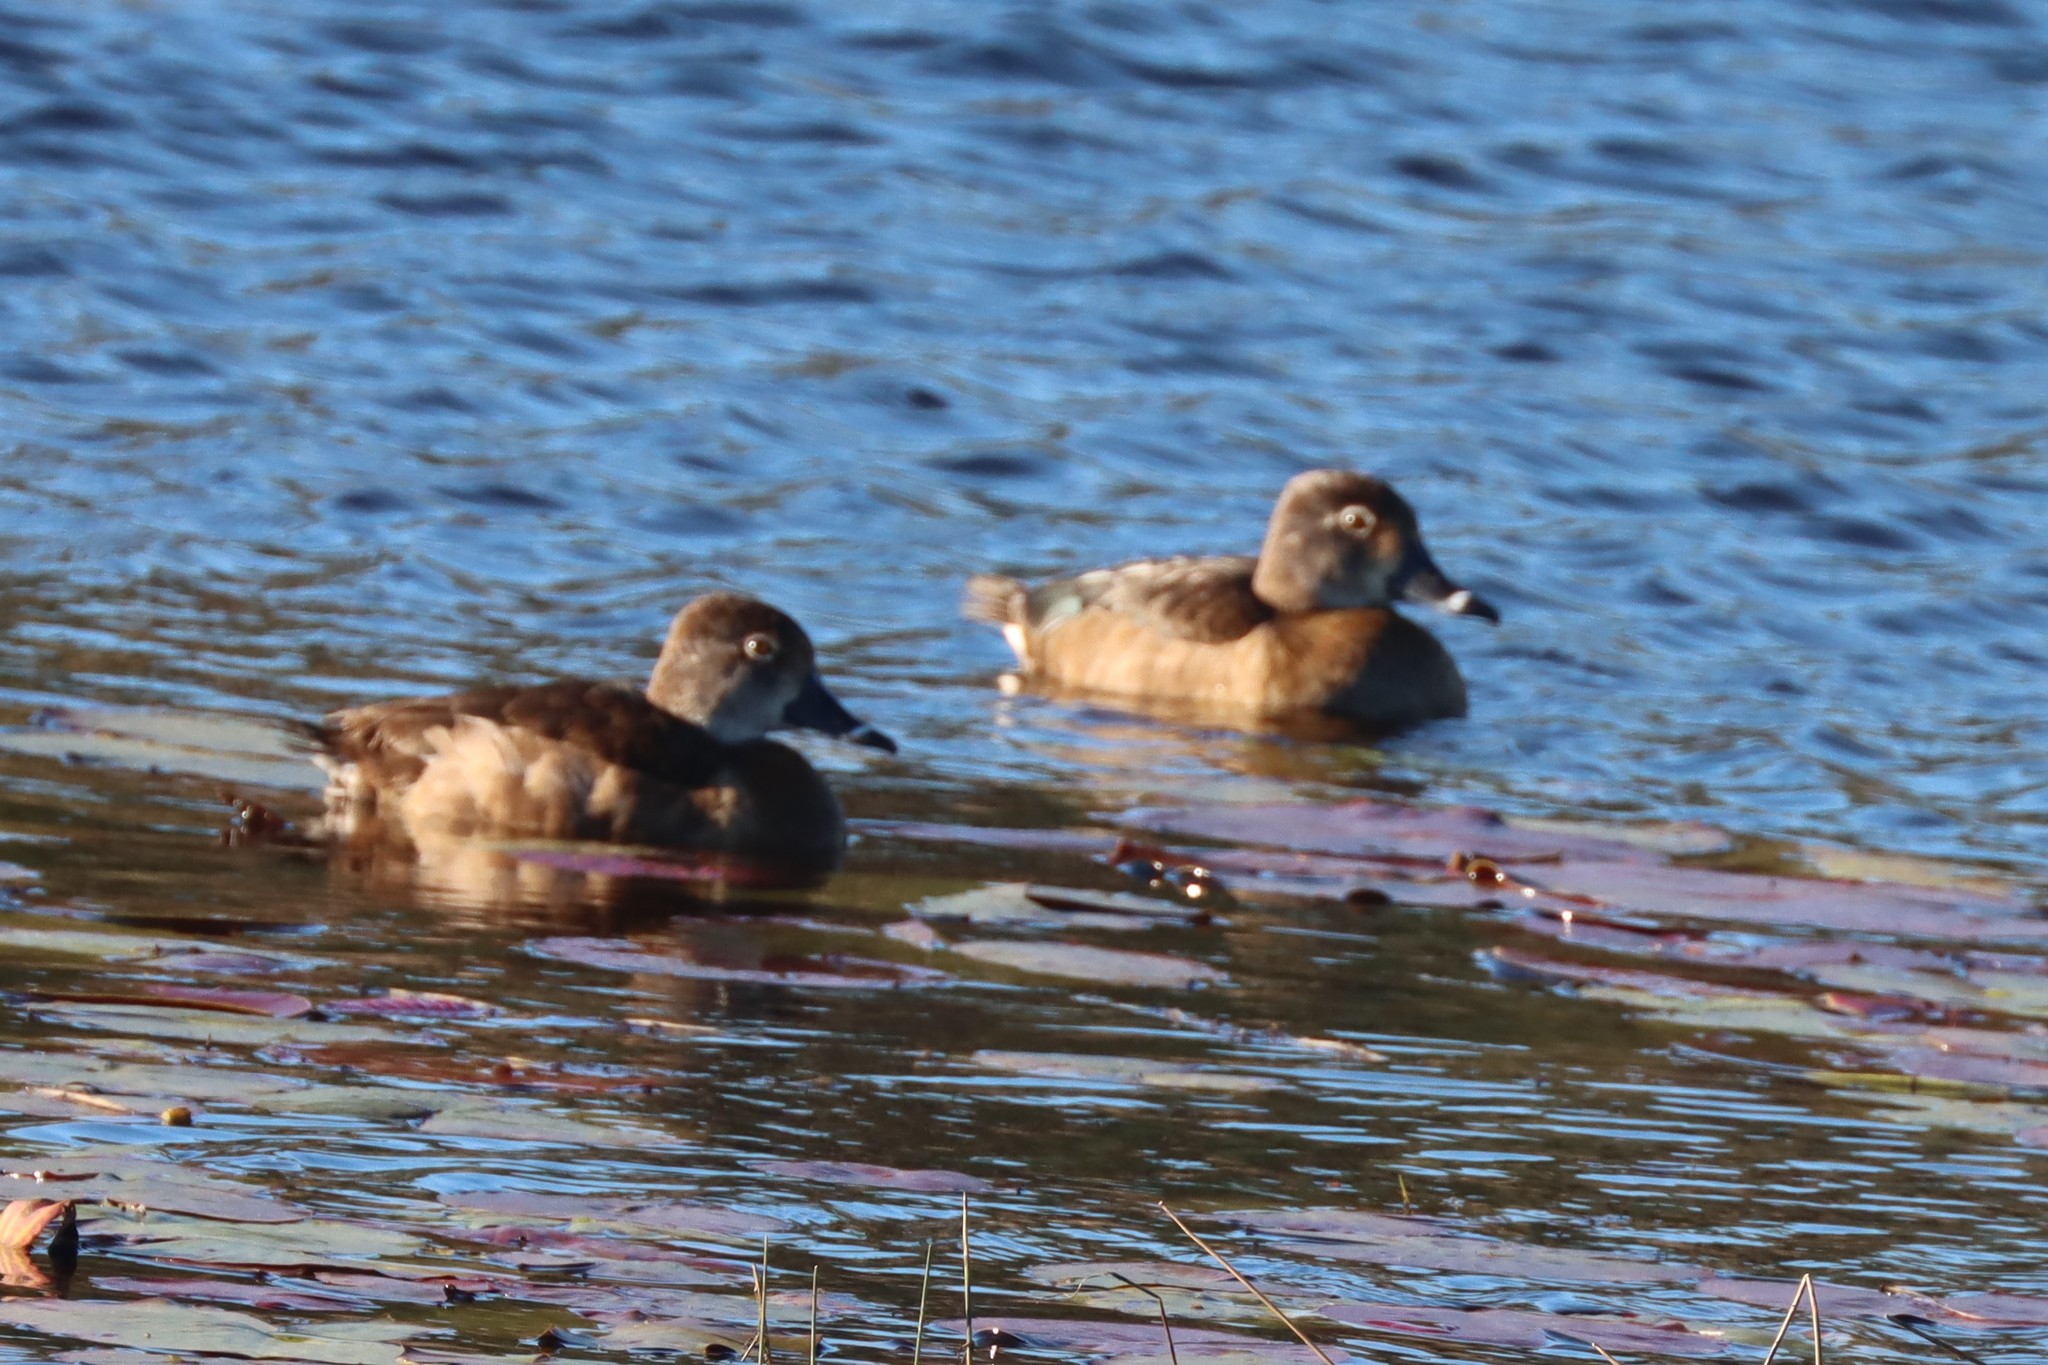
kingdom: Animalia
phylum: Chordata
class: Aves
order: Anseriformes
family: Anatidae
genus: Aythya
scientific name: Aythya collaris
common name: Ring-necked duck
